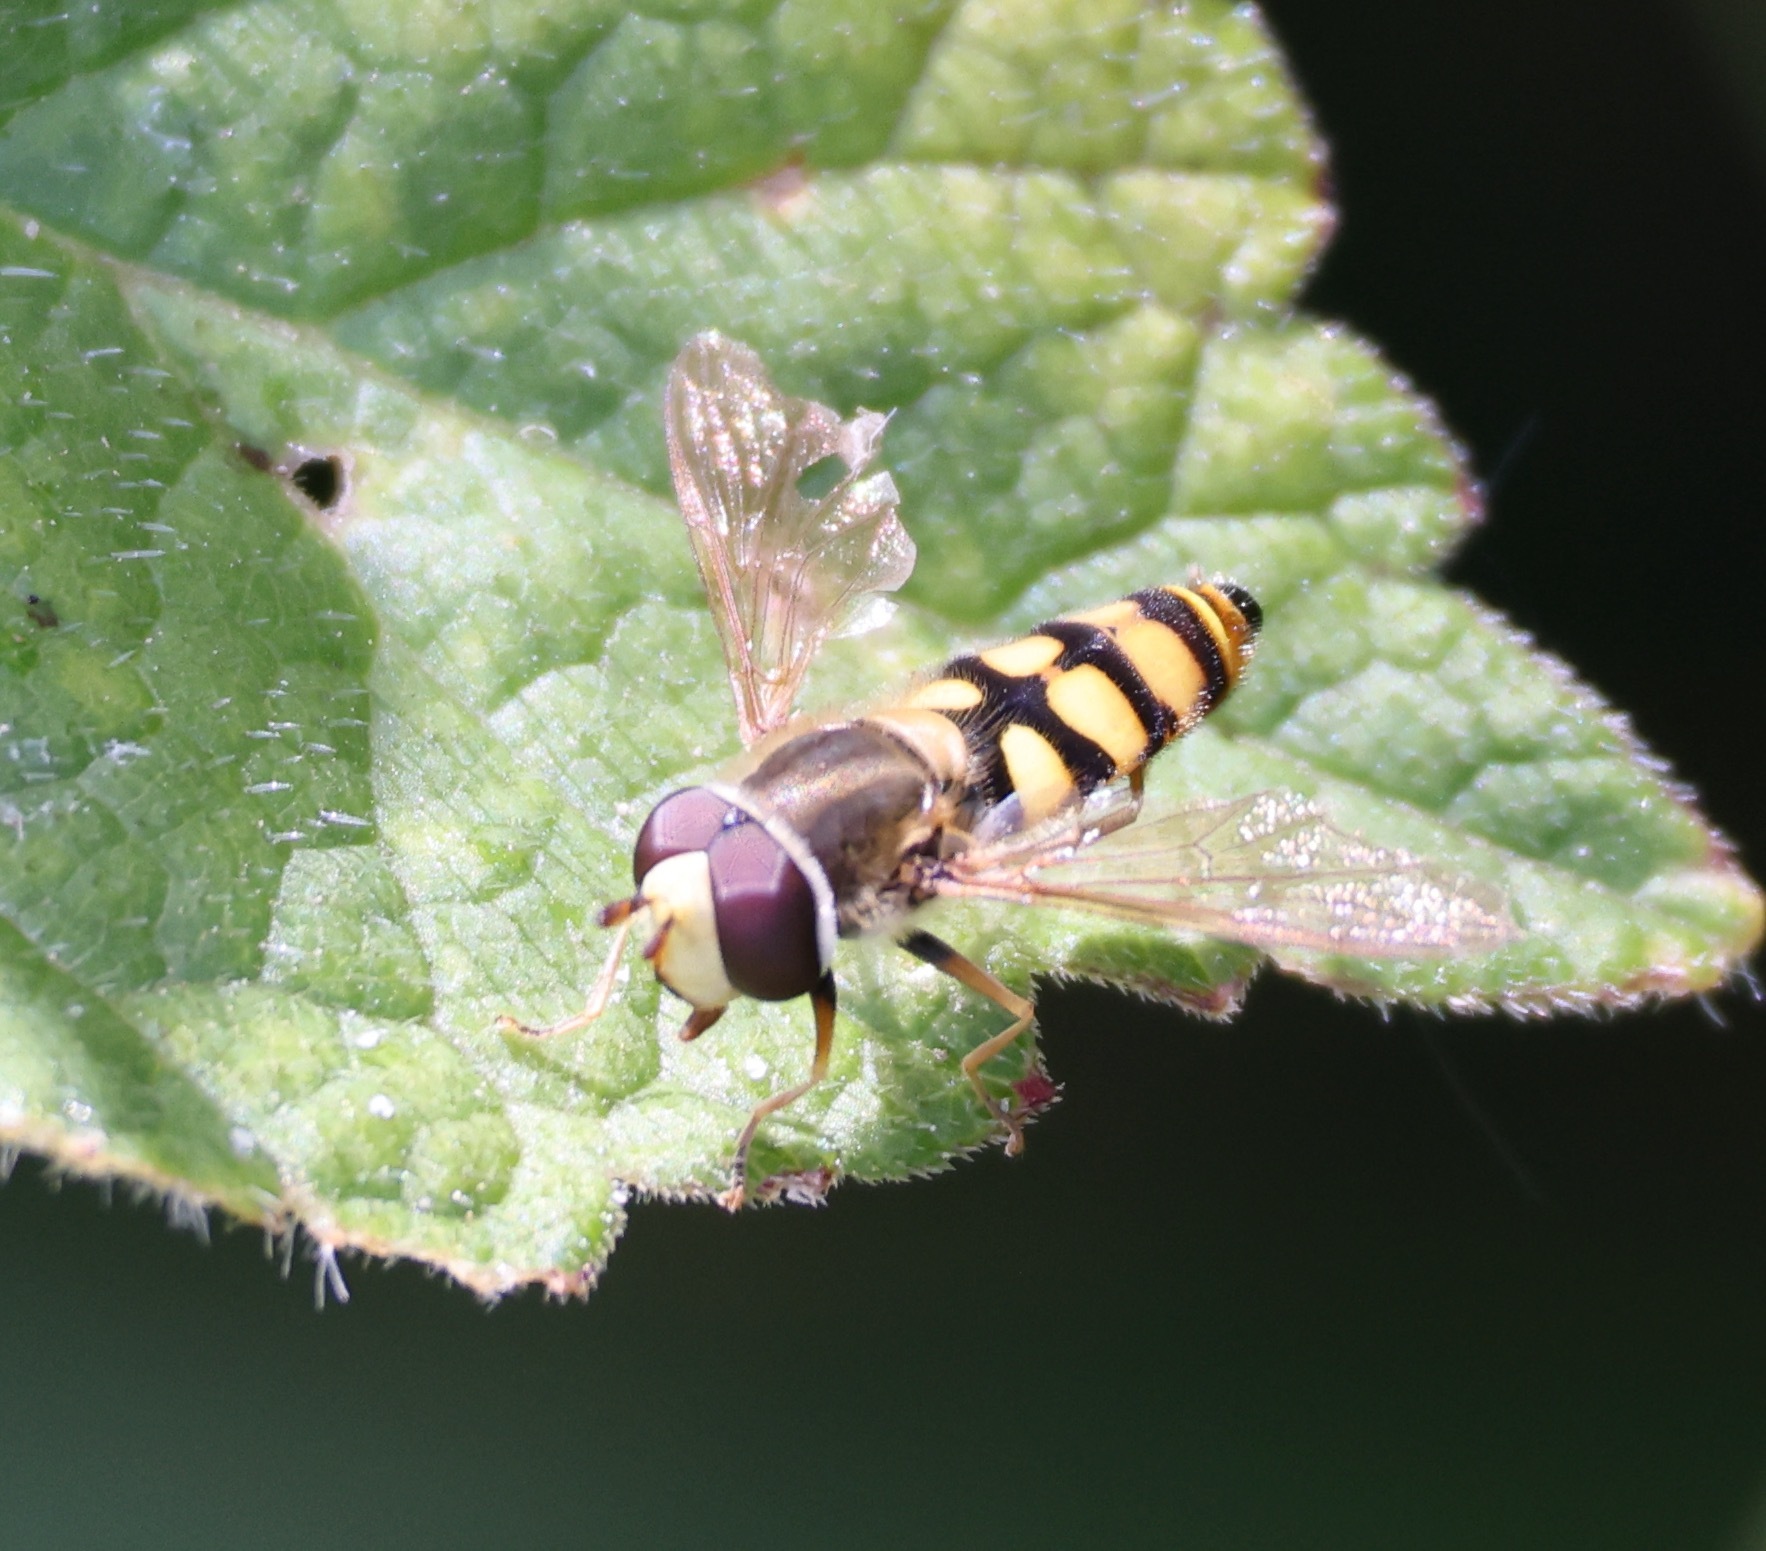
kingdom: Animalia
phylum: Arthropoda
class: Insecta
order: Diptera
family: Syrphidae
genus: Eupeodes
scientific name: Eupeodes corollae
